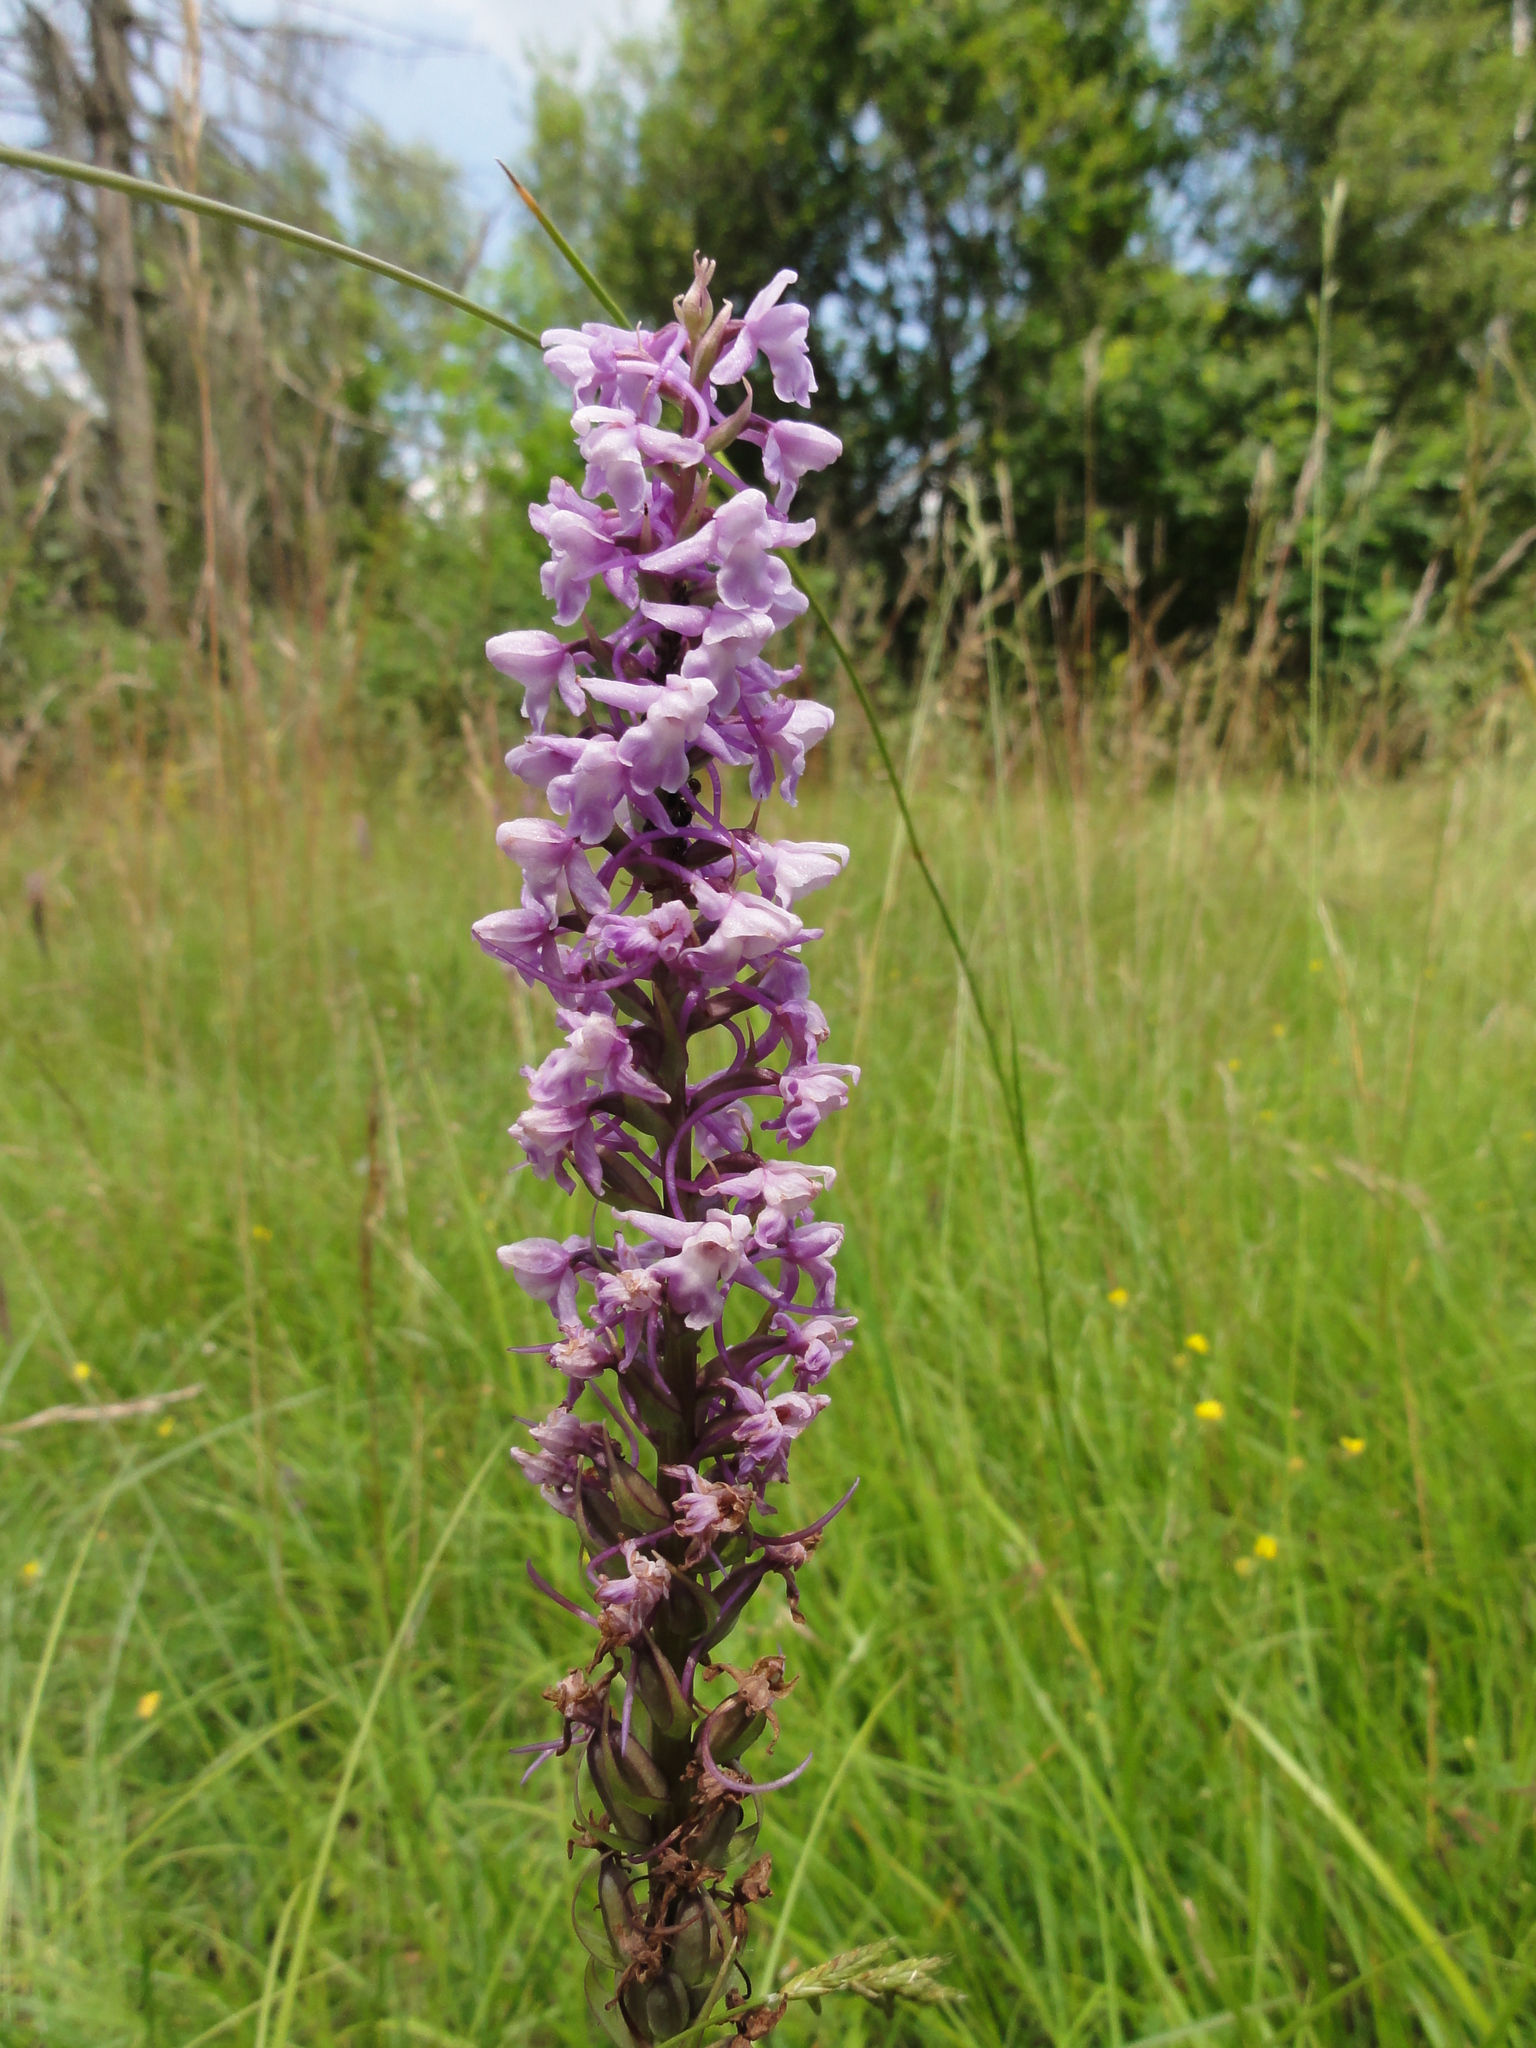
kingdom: Plantae
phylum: Tracheophyta
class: Liliopsida
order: Asparagales
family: Orchidaceae
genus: Gymnadenia
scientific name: Gymnadenia conopsea
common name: Fragrant orchid
